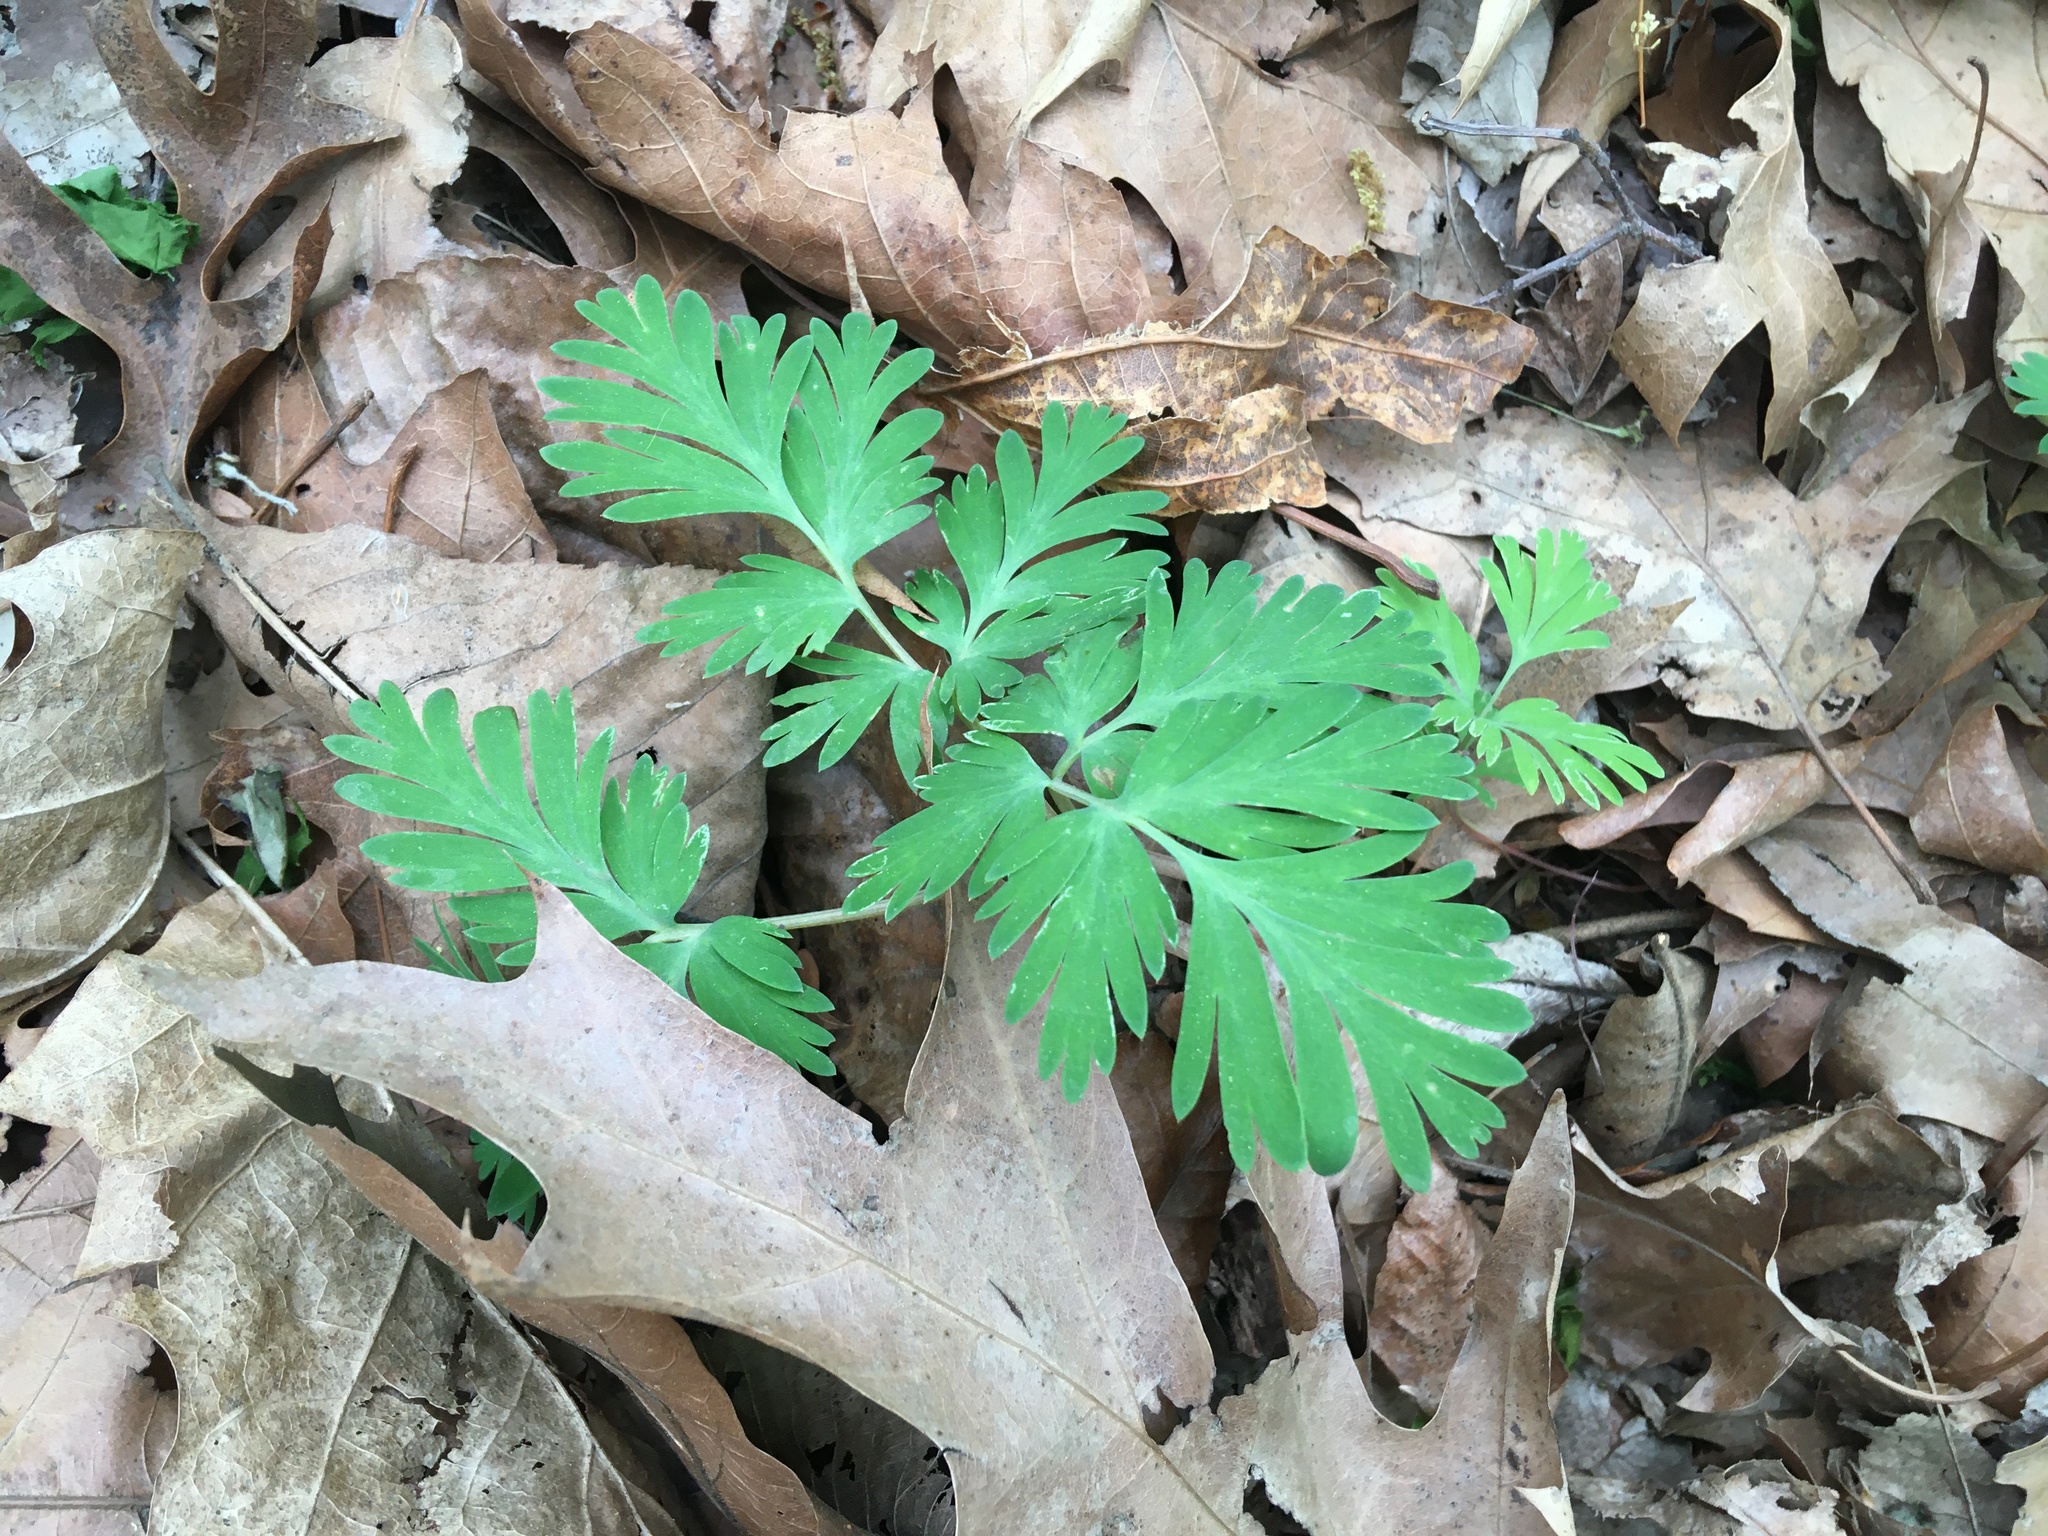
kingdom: Plantae
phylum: Tracheophyta
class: Magnoliopsida
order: Ranunculales
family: Papaveraceae
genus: Dicentra
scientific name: Dicentra cucullaria
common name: Dutchman's breeches
